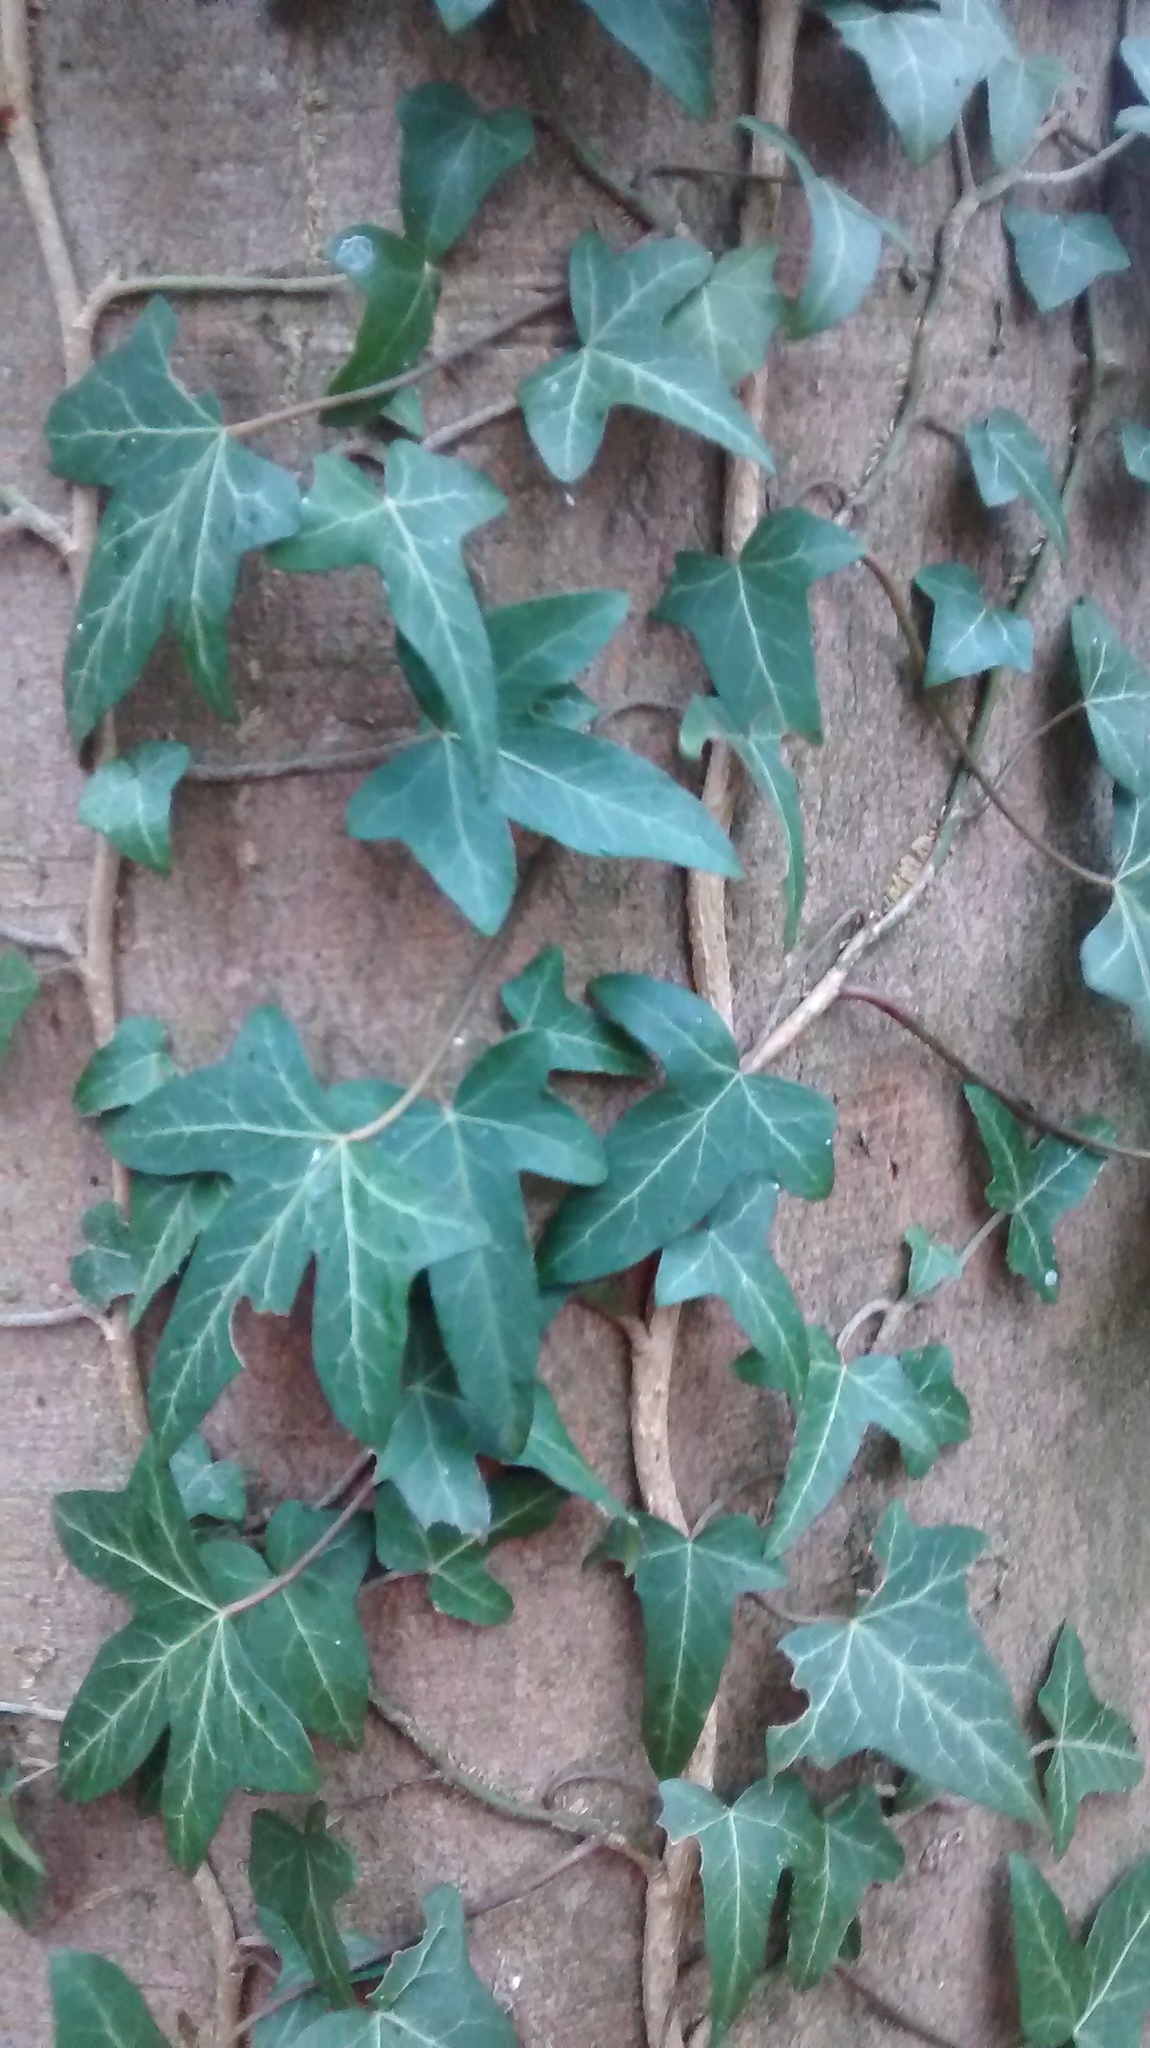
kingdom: Plantae
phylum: Tracheophyta
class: Magnoliopsida
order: Apiales
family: Araliaceae
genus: Hedera
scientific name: Hedera helix
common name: Ivy
